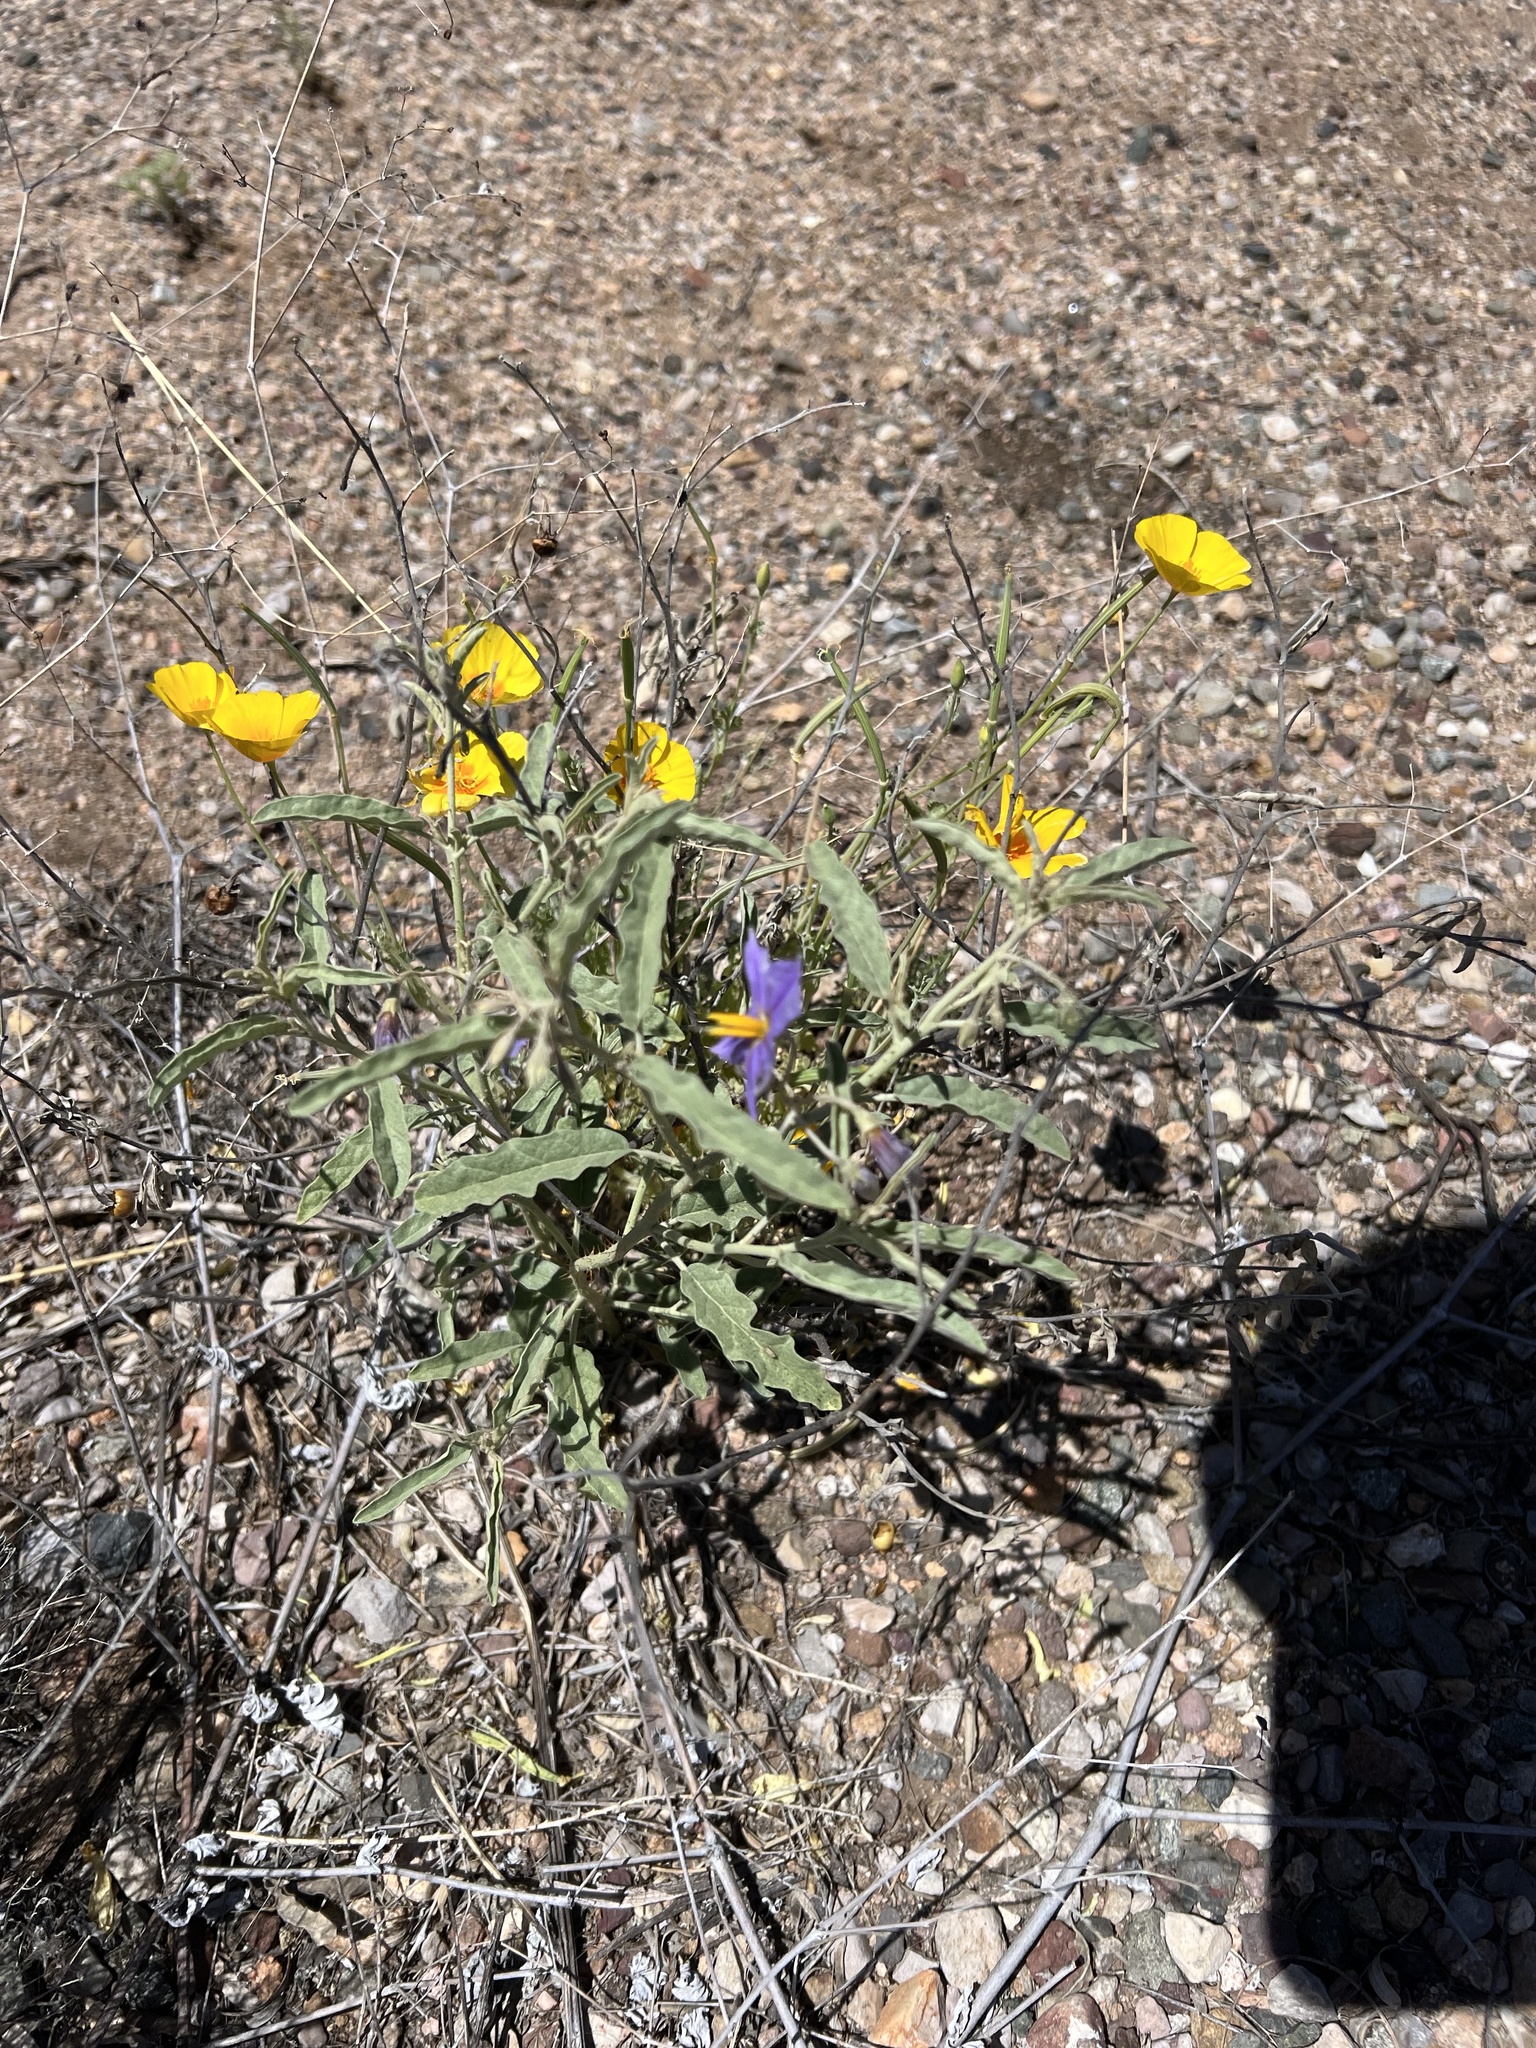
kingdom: Plantae
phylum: Tracheophyta
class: Magnoliopsida
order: Solanales
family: Solanaceae
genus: Solanum
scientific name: Solanum elaeagnifolium
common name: Silverleaf nightshade
